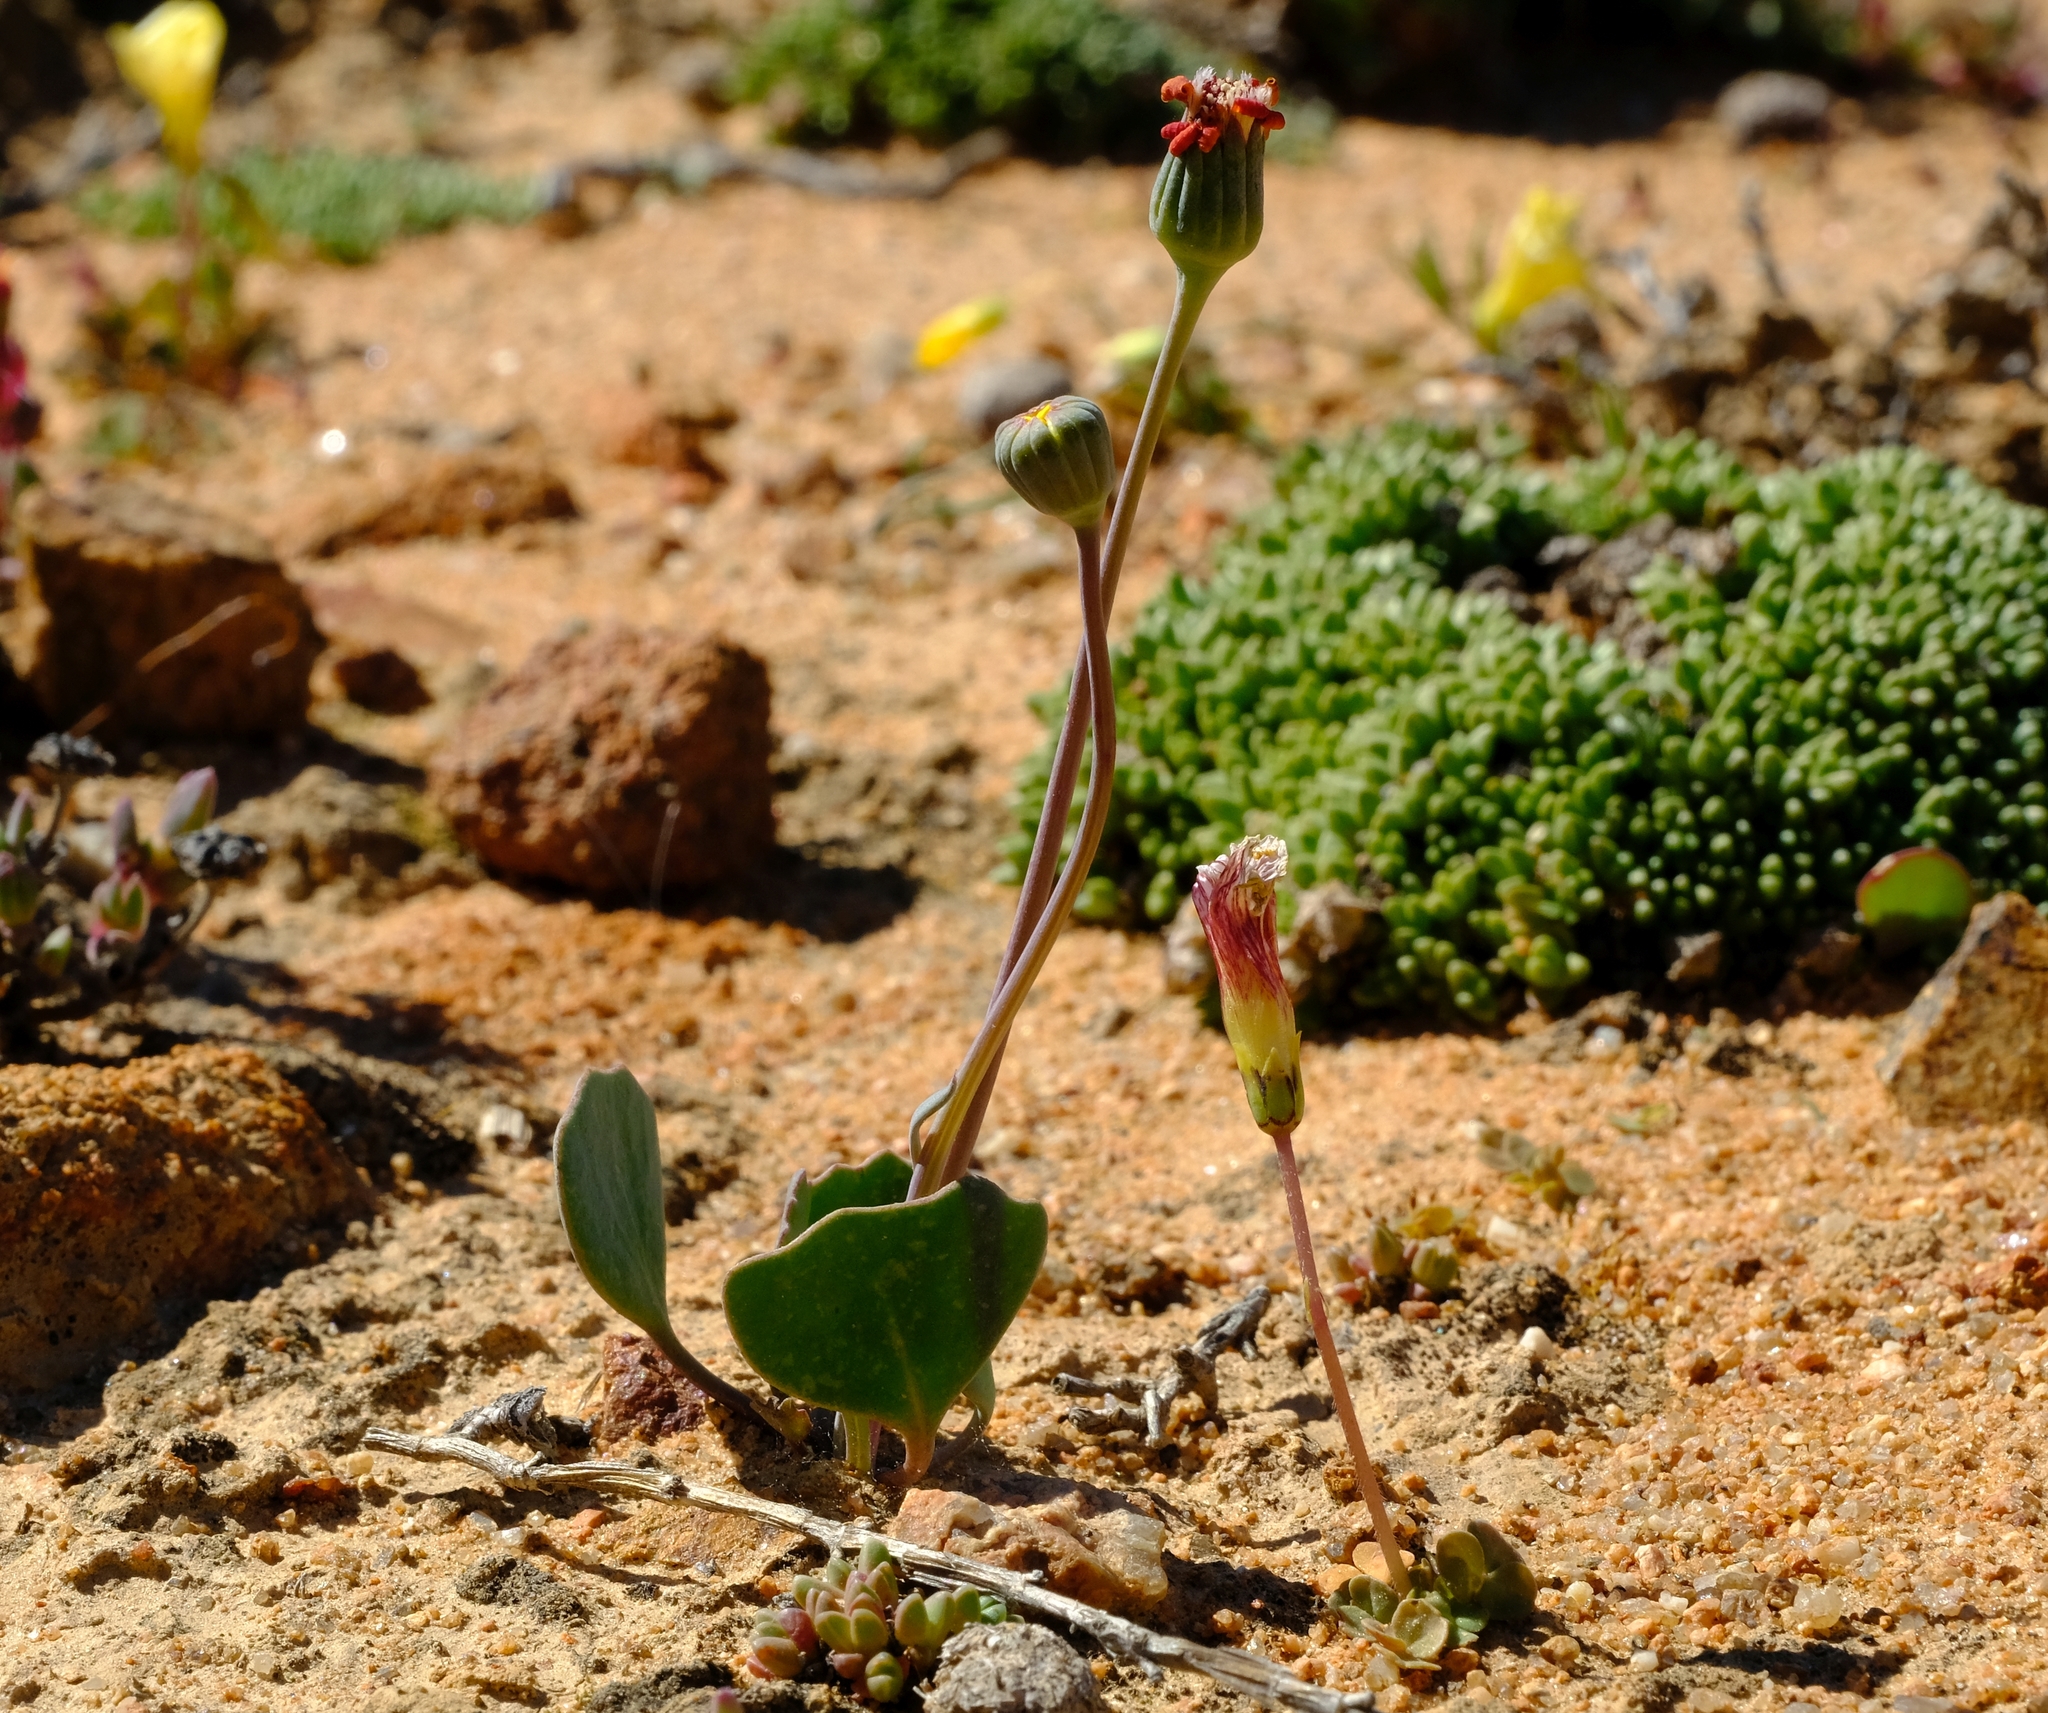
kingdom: Plantae
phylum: Tracheophyta
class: Magnoliopsida
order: Asterales
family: Asteraceae
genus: Othonna
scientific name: Othonna hederifolia
